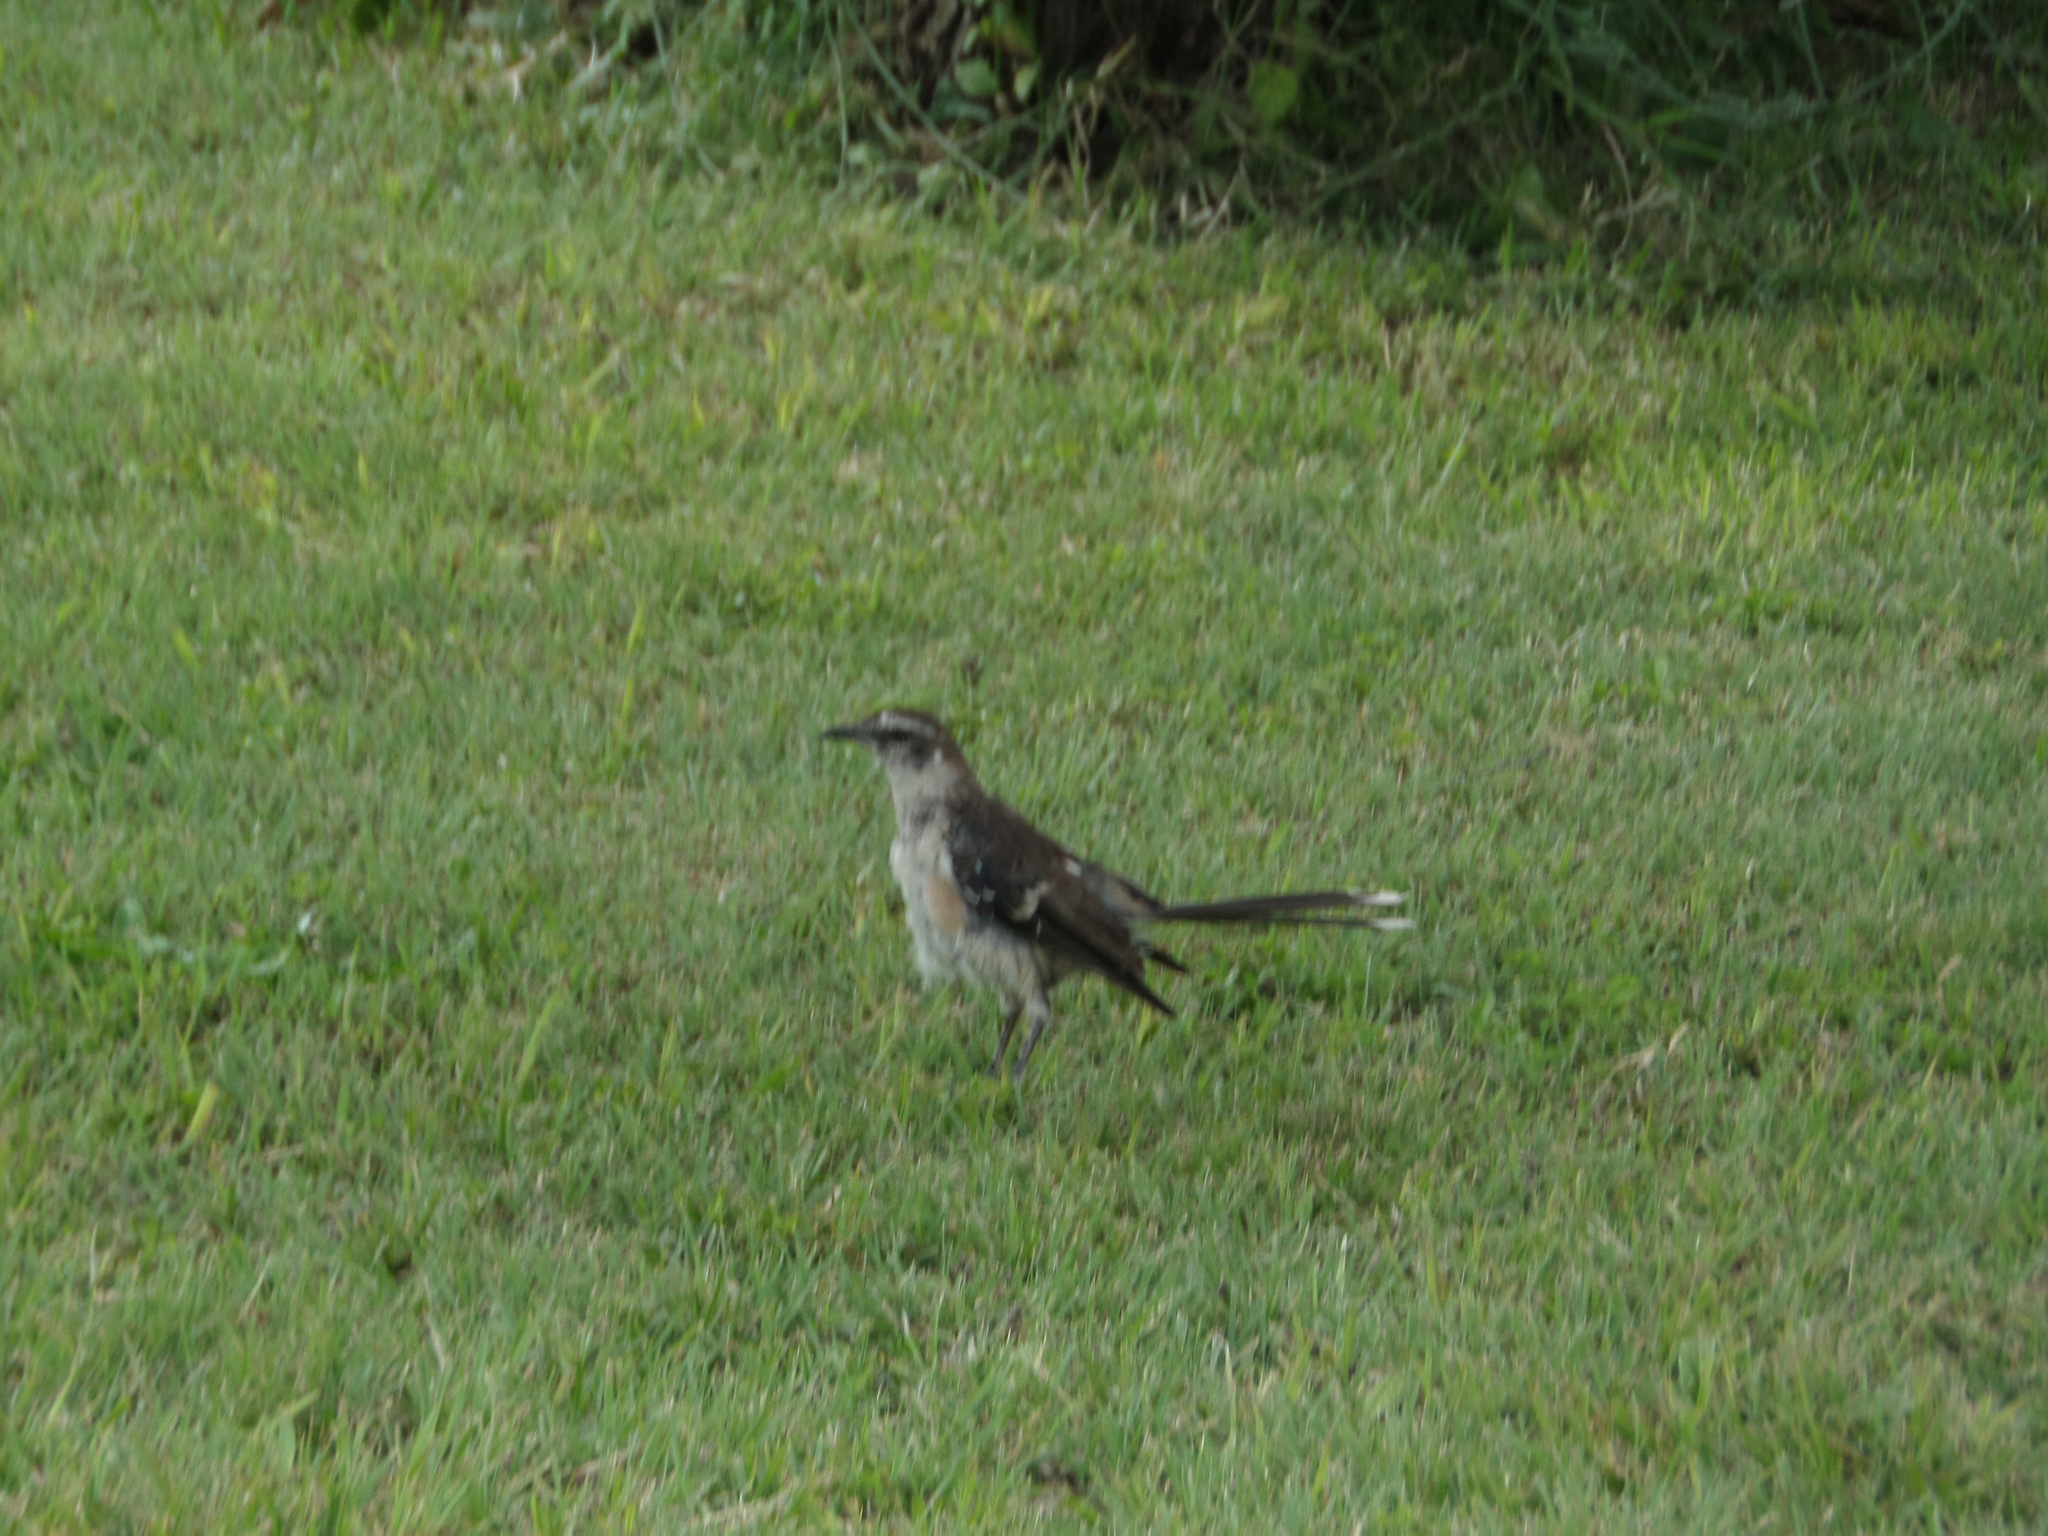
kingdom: Animalia
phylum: Chordata
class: Aves
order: Passeriformes
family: Mimidae
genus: Mimus
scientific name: Mimus saturninus
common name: Chalk-browed mockingbird
